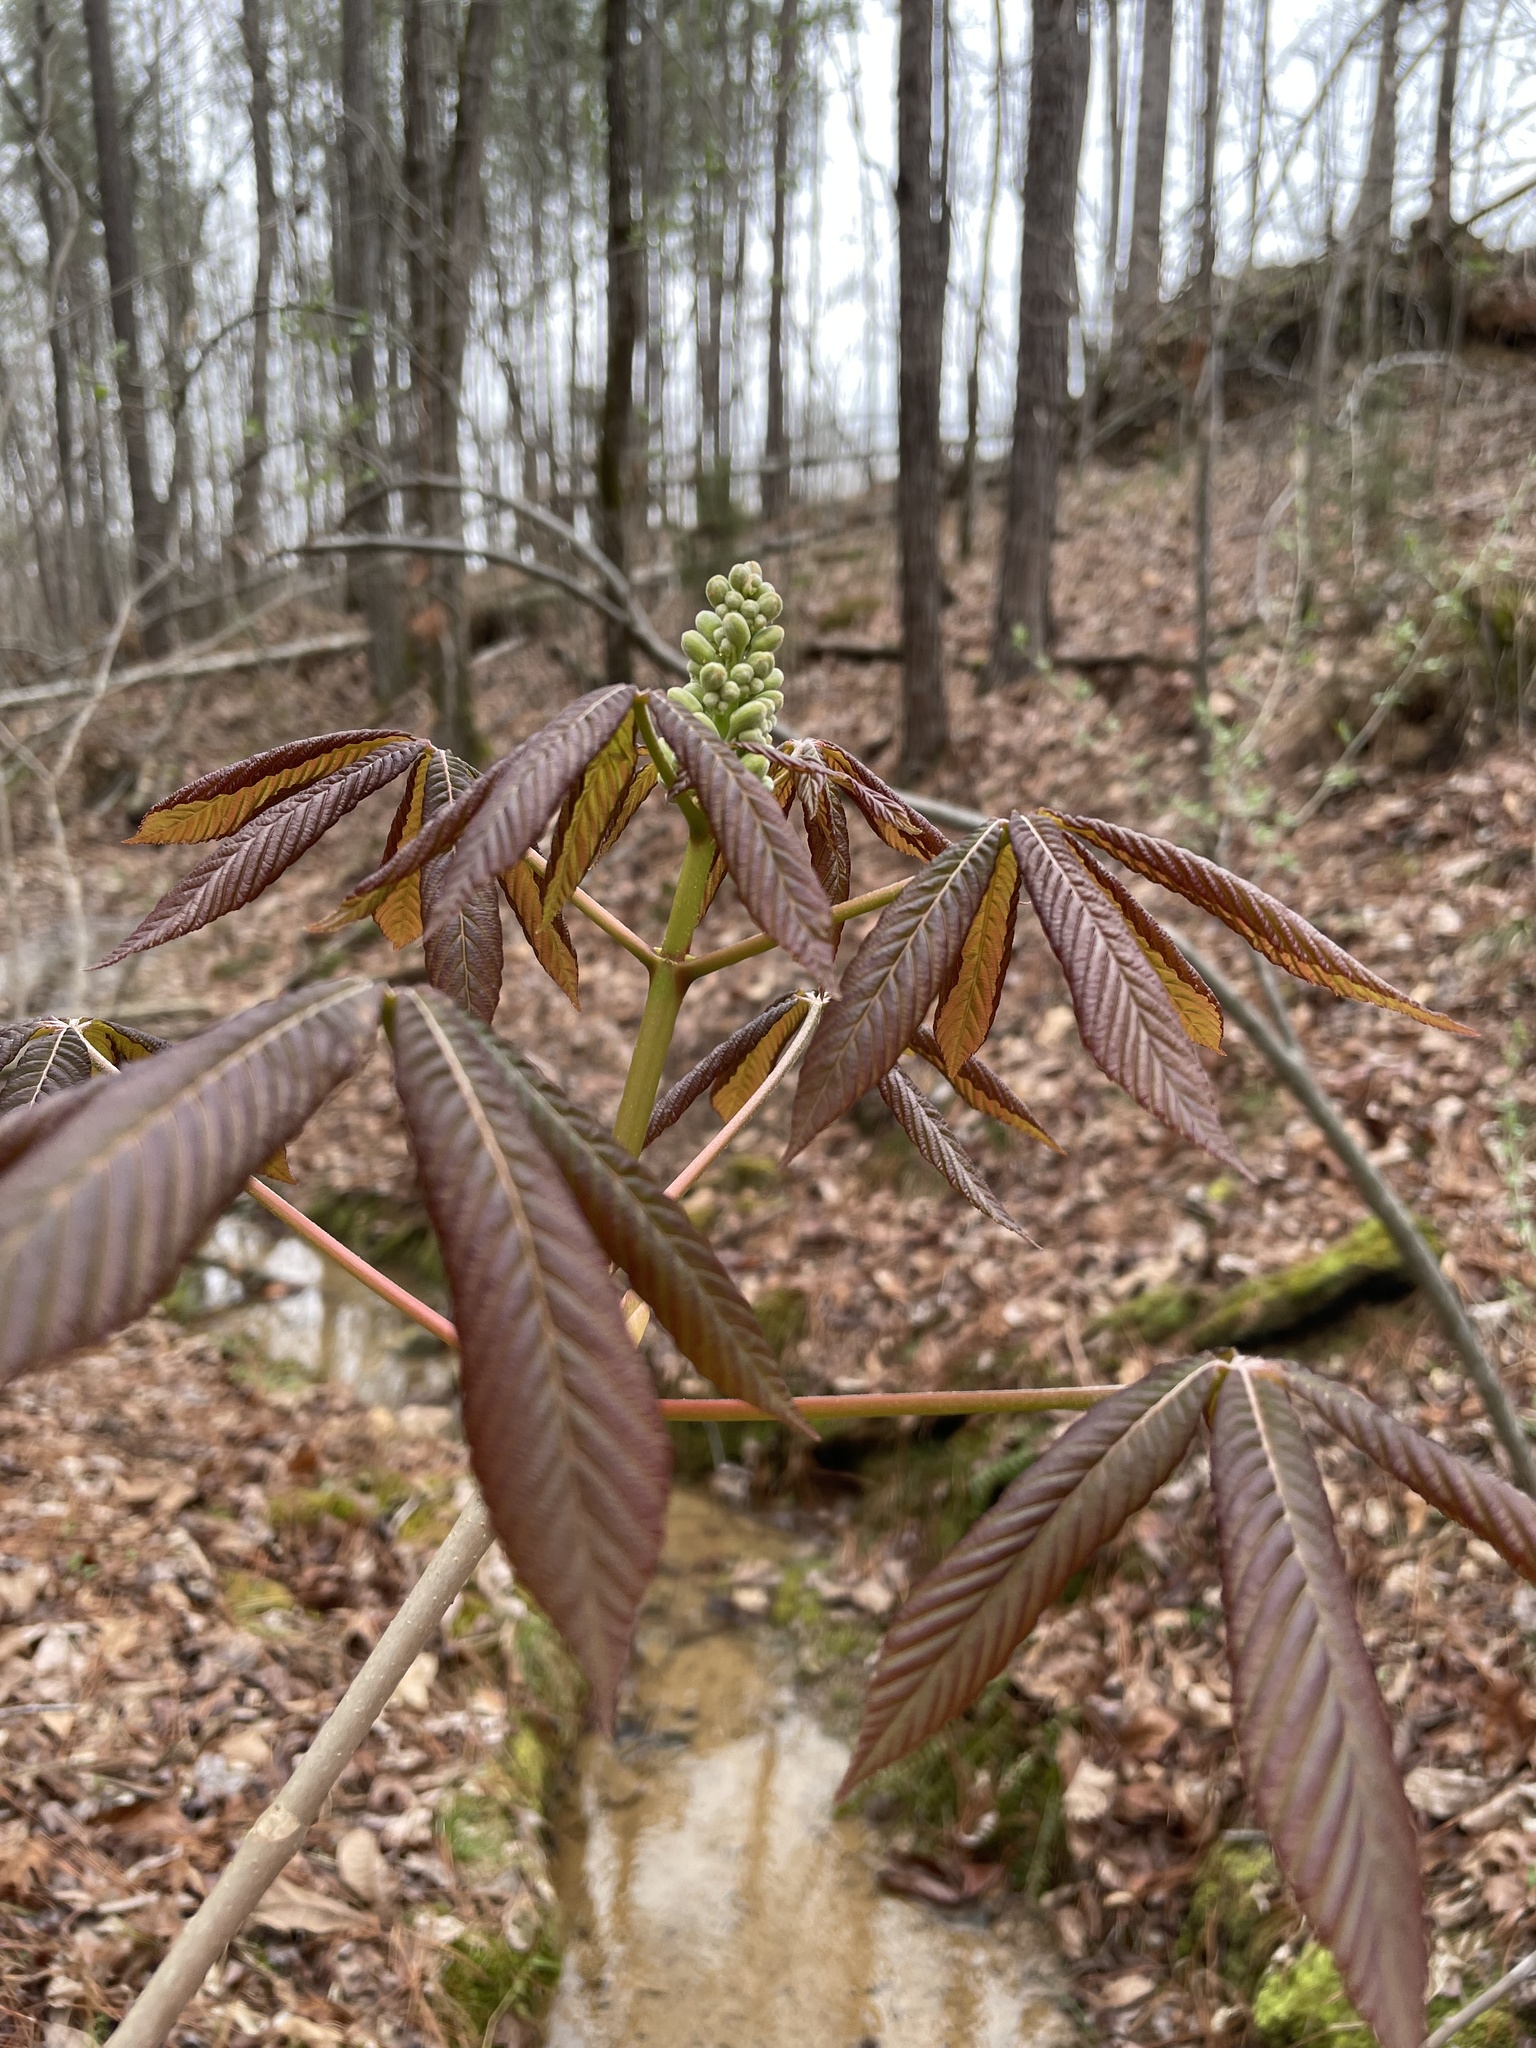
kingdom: Plantae
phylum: Tracheophyta
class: Magnoliopsida
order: Sapindales
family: Sapindaceae
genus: Aesculus
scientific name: Aesculus sylvatica
